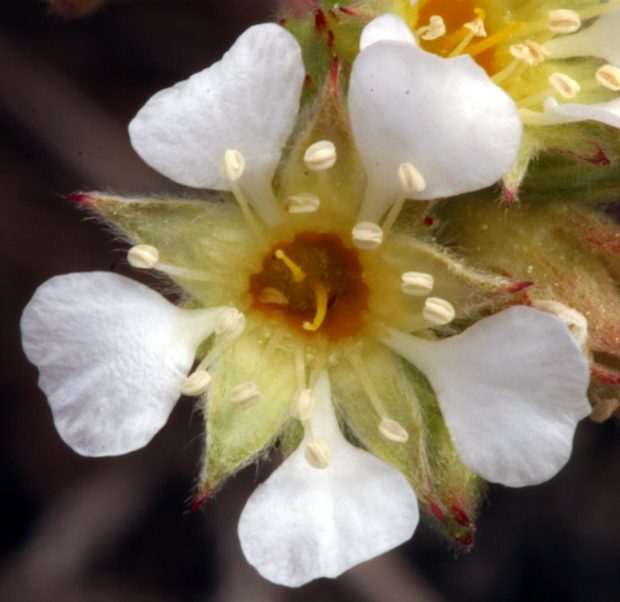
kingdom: Plantae
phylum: Tracheophyta
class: Magnoliopsida
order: Rosales
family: Rosaceae
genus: Potentilla
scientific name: Potentilla sericoleuca
